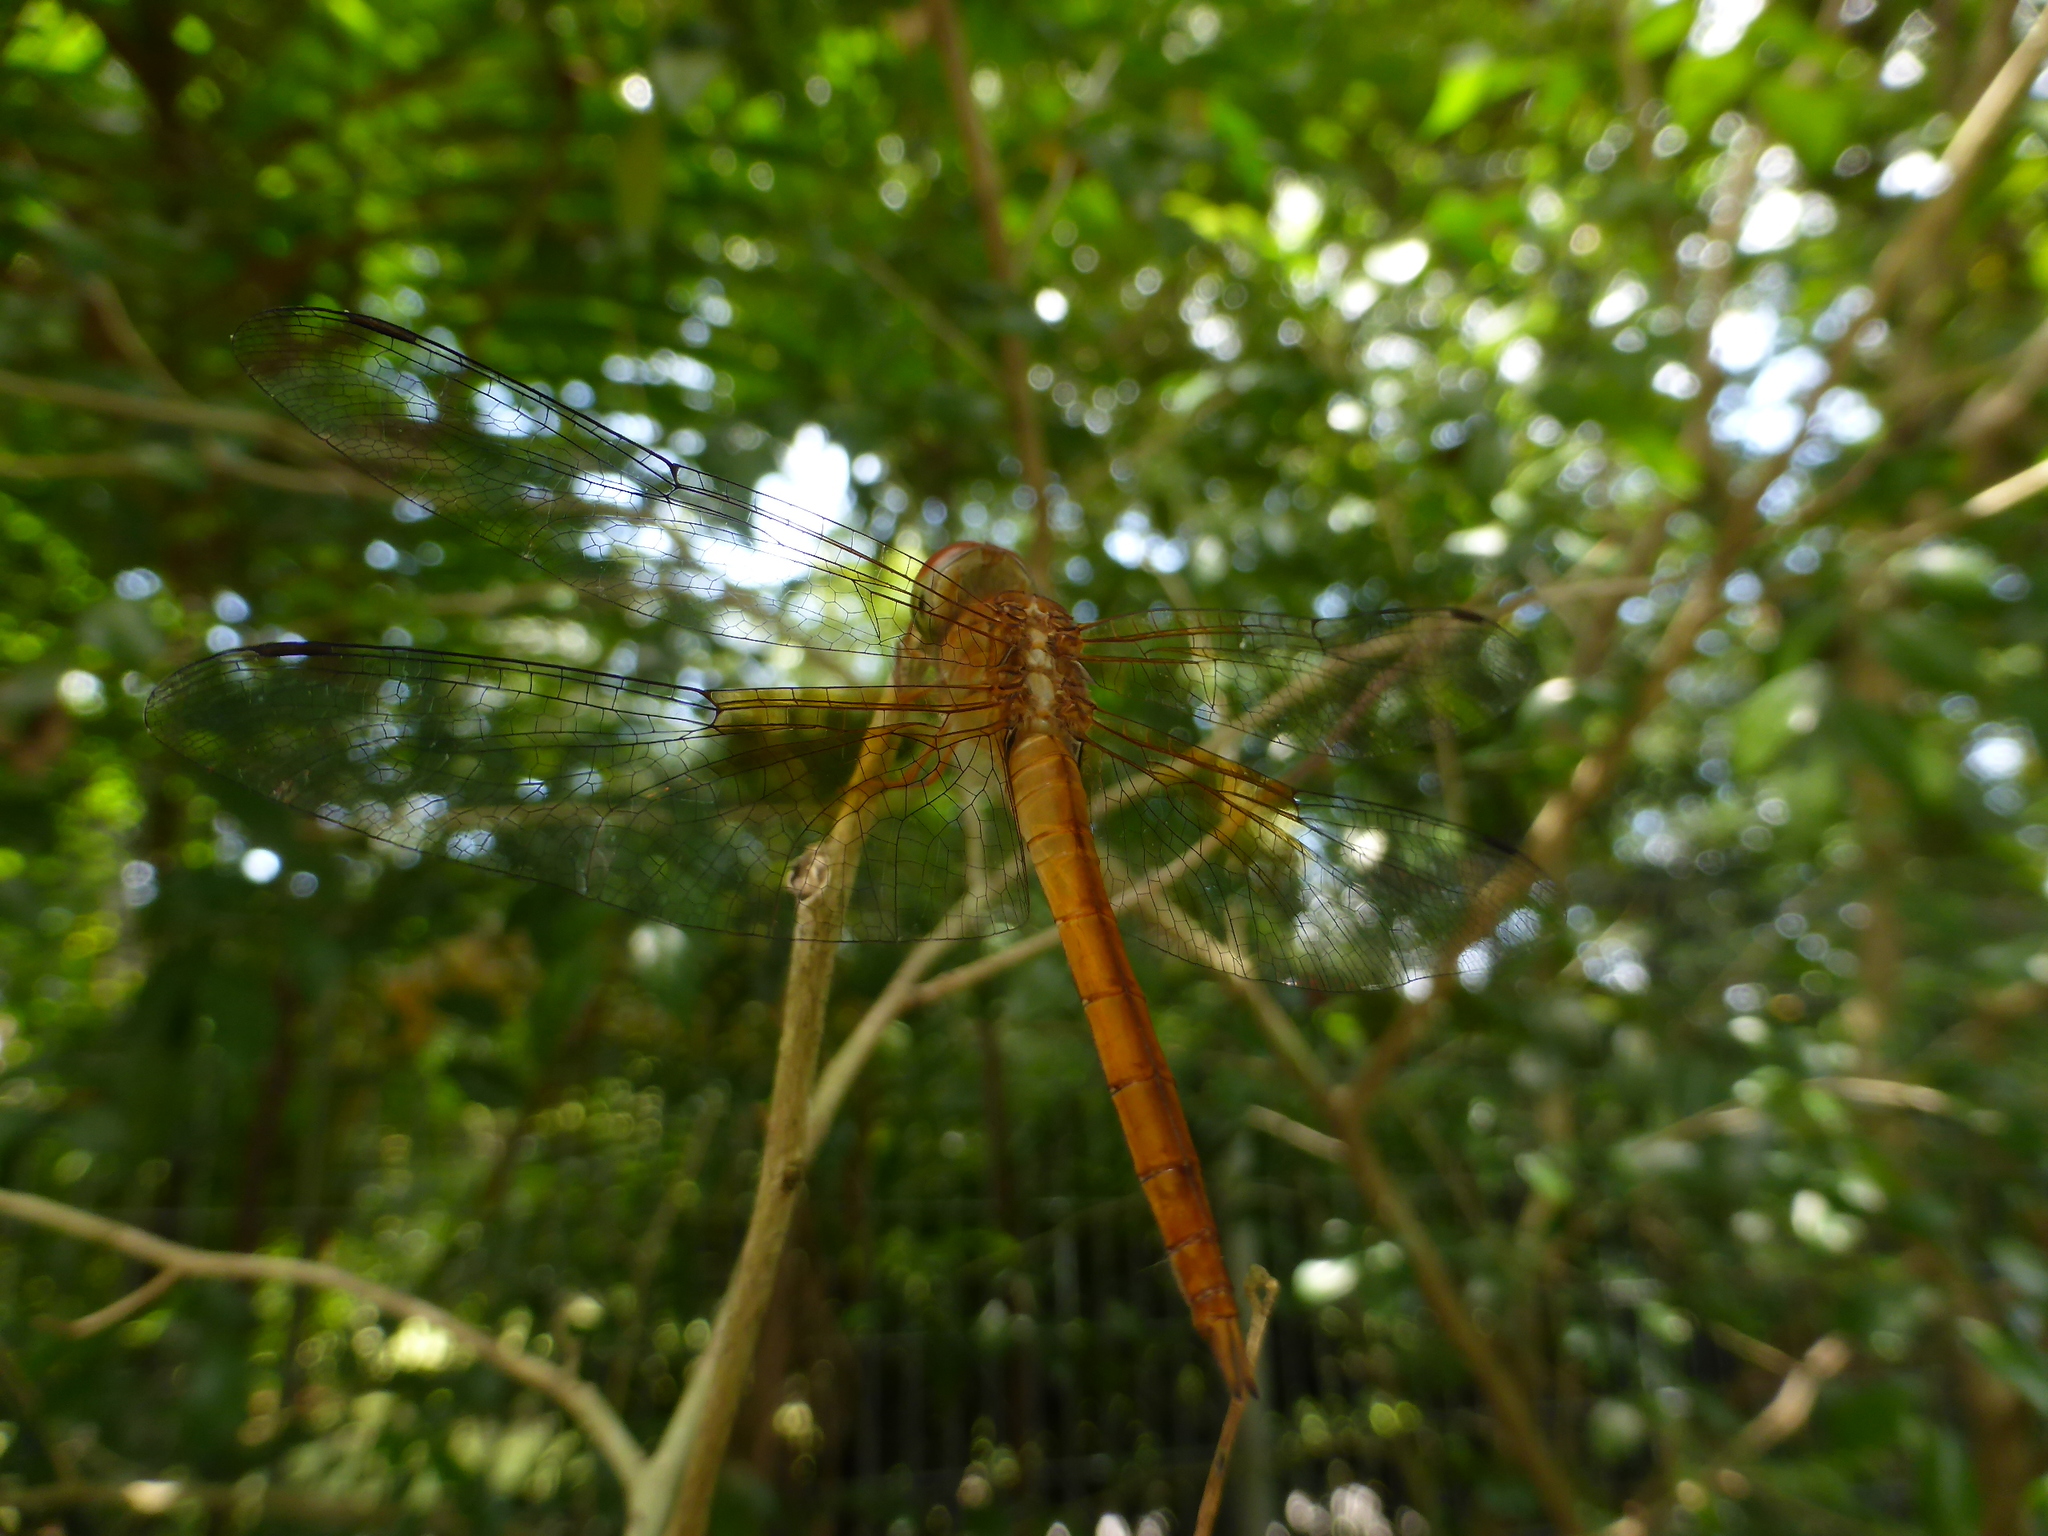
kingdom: Animalia
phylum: Arthropoda
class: Insecta
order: Odonata
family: Libellulidae
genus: Tholymis
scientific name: Tholymis tillarga
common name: Coral-tailed cloud wing
